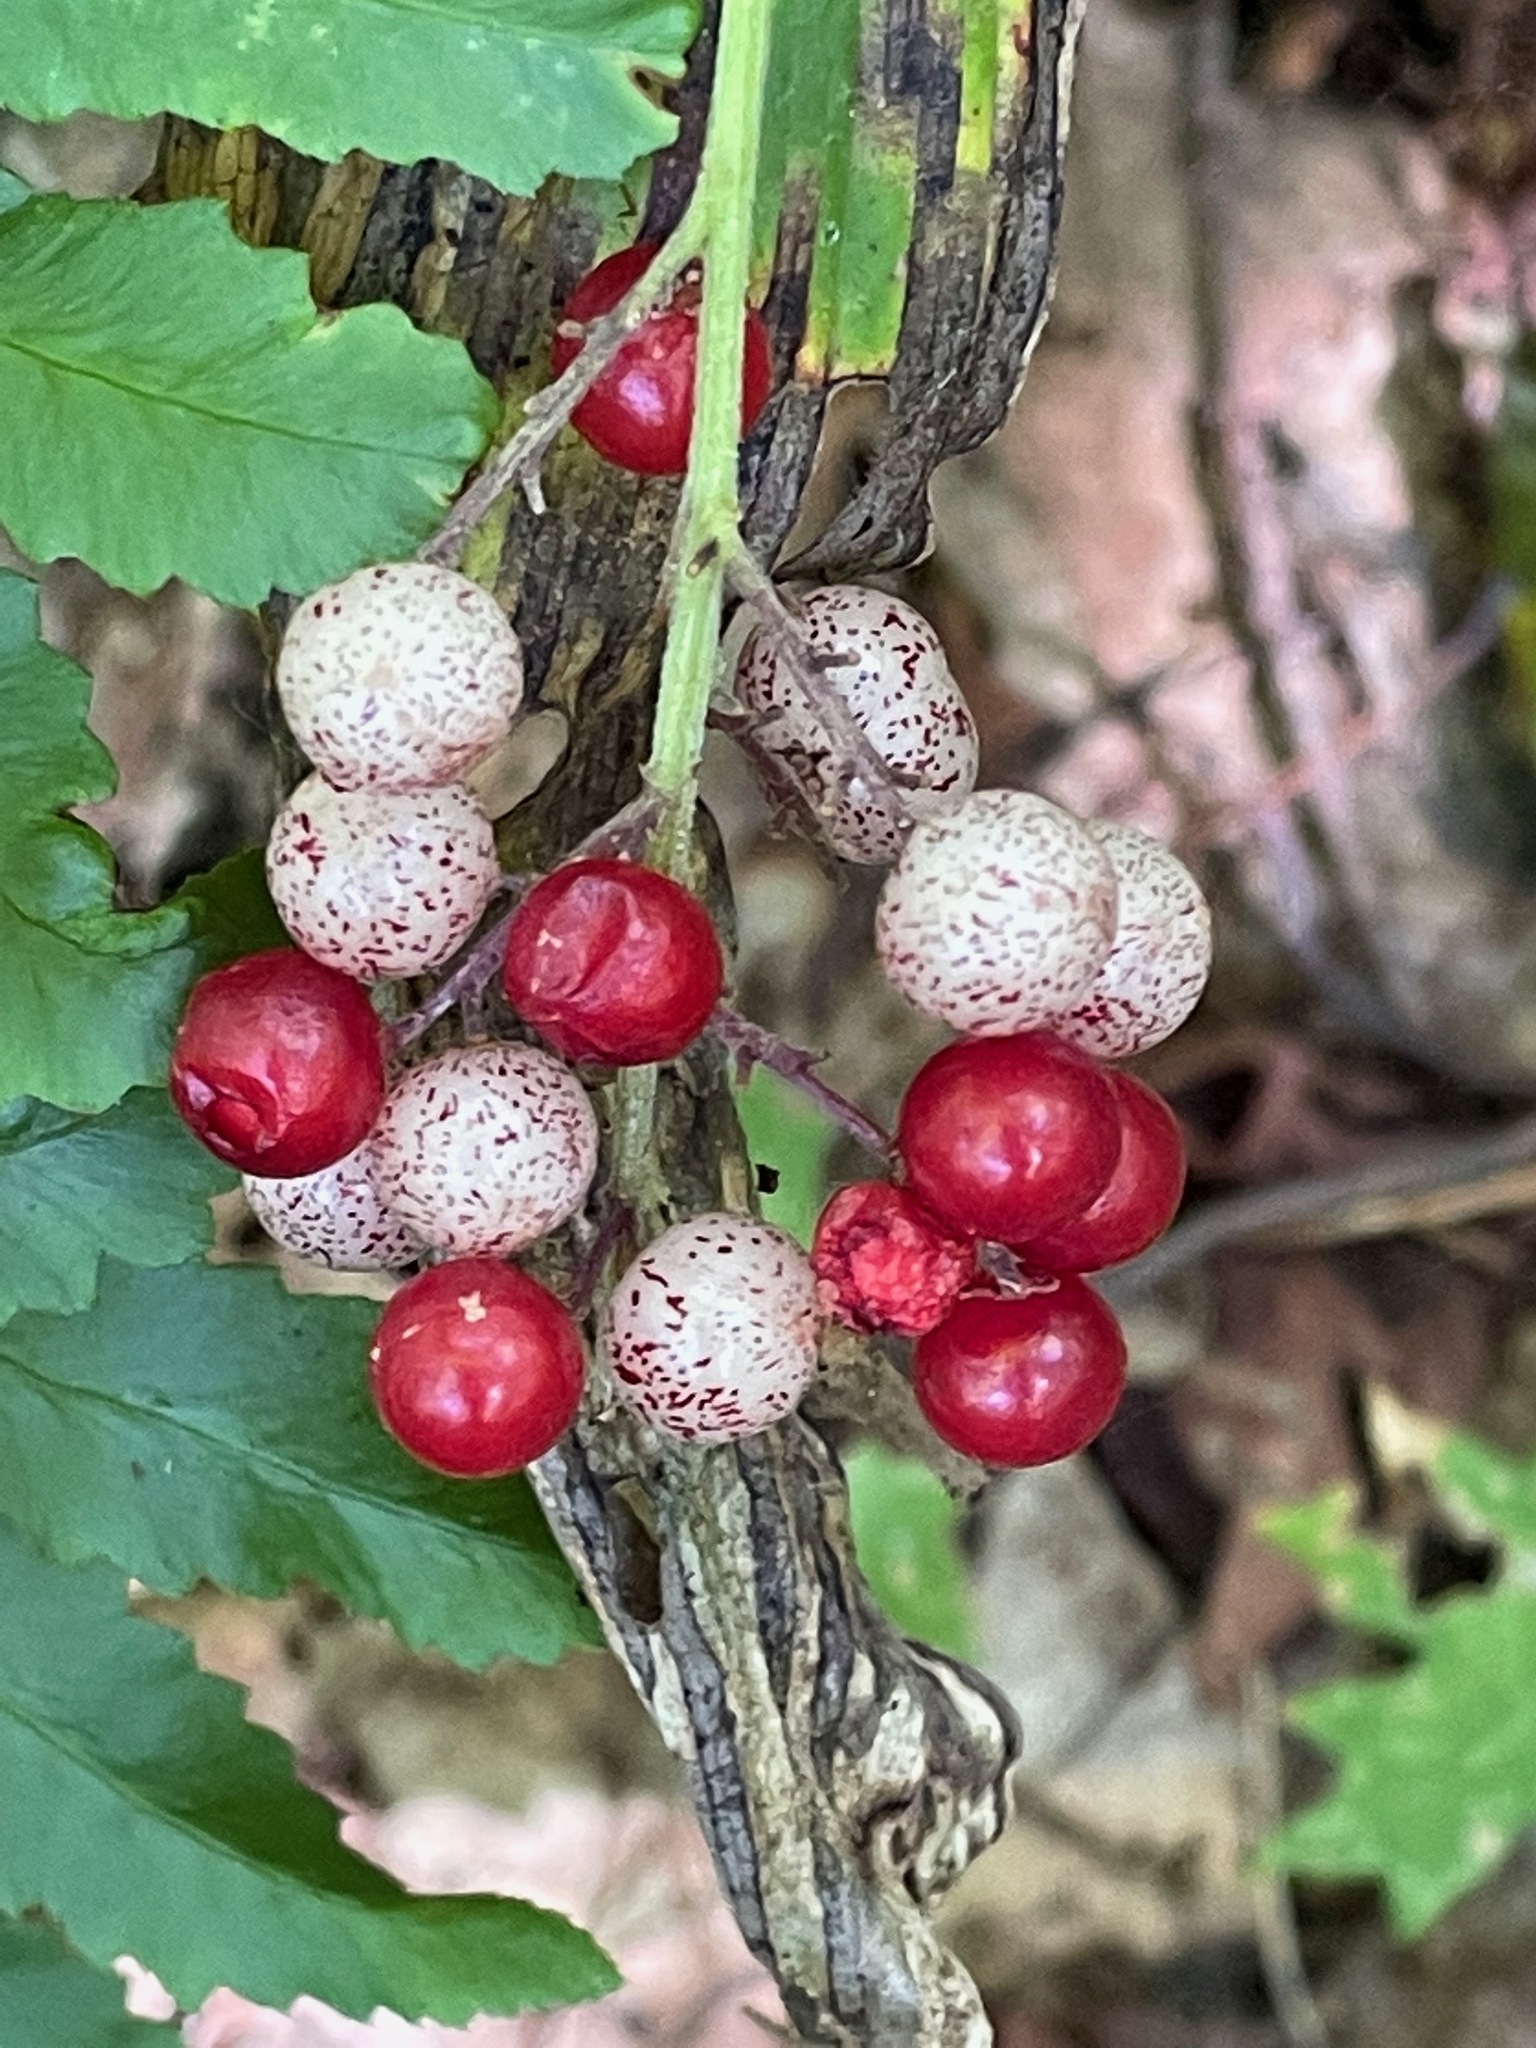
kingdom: Plantae
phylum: Tracheophyta
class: Liliopsida
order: Asparagales
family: Asparagaceae
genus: Maianthemum
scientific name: Maianthemum racemosum
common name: False spikenard
